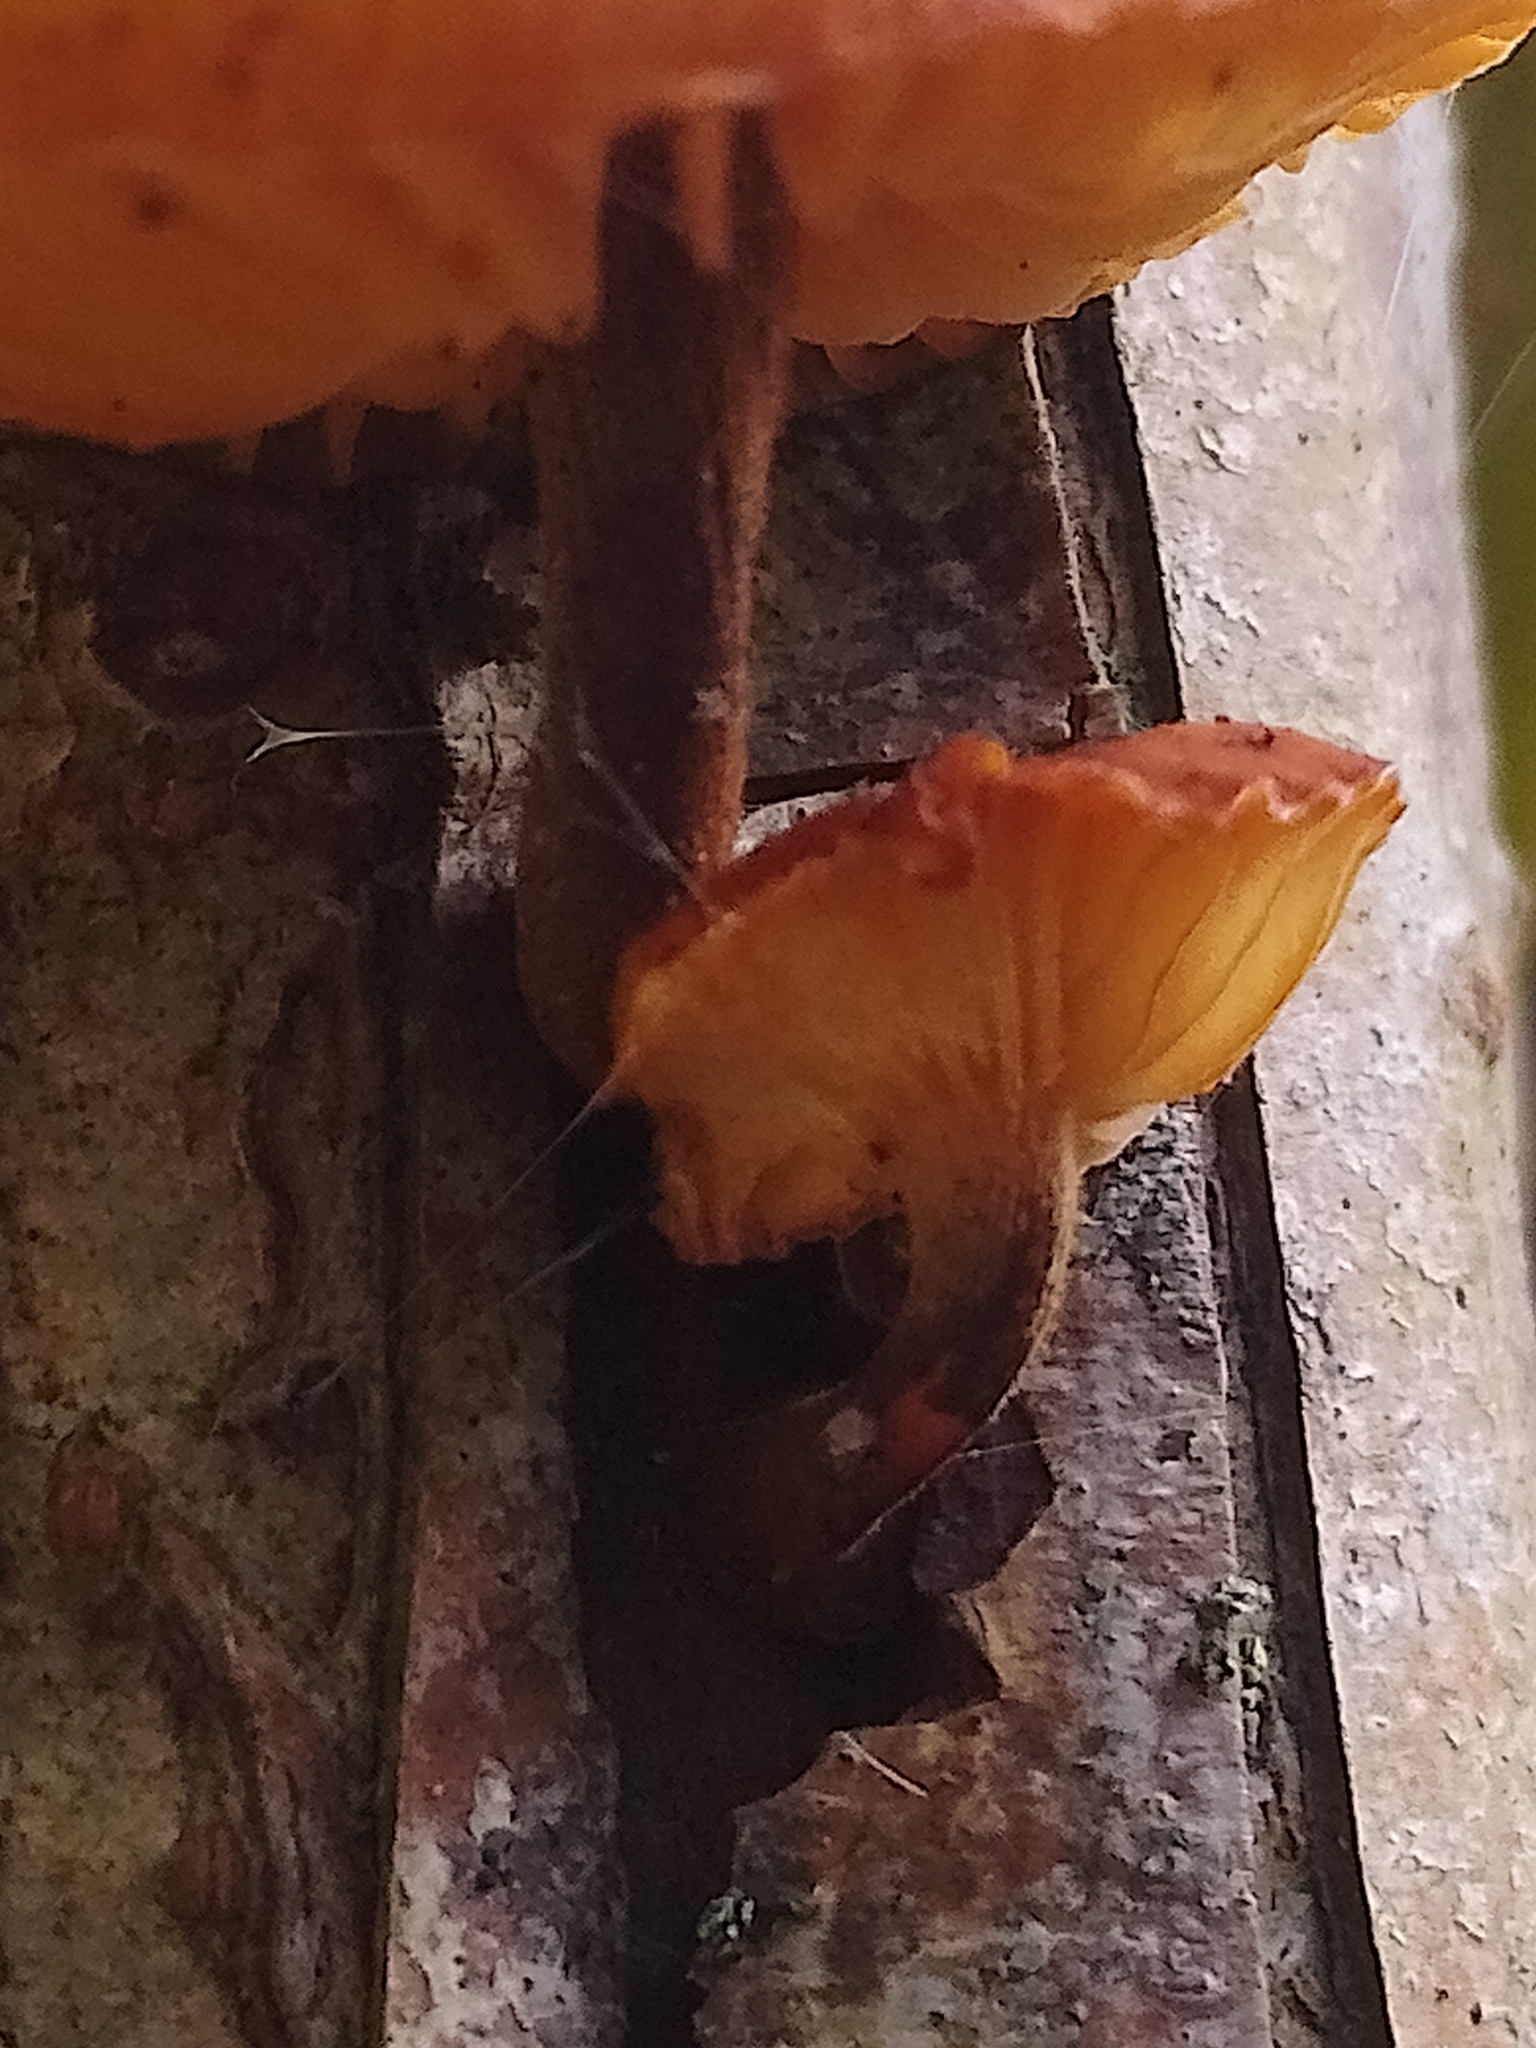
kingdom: Fungi
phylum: Basidiomycota
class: Agaricomycetes
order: Agaricales
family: Physalacriaceae
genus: Flammulina
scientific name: Flammulina
